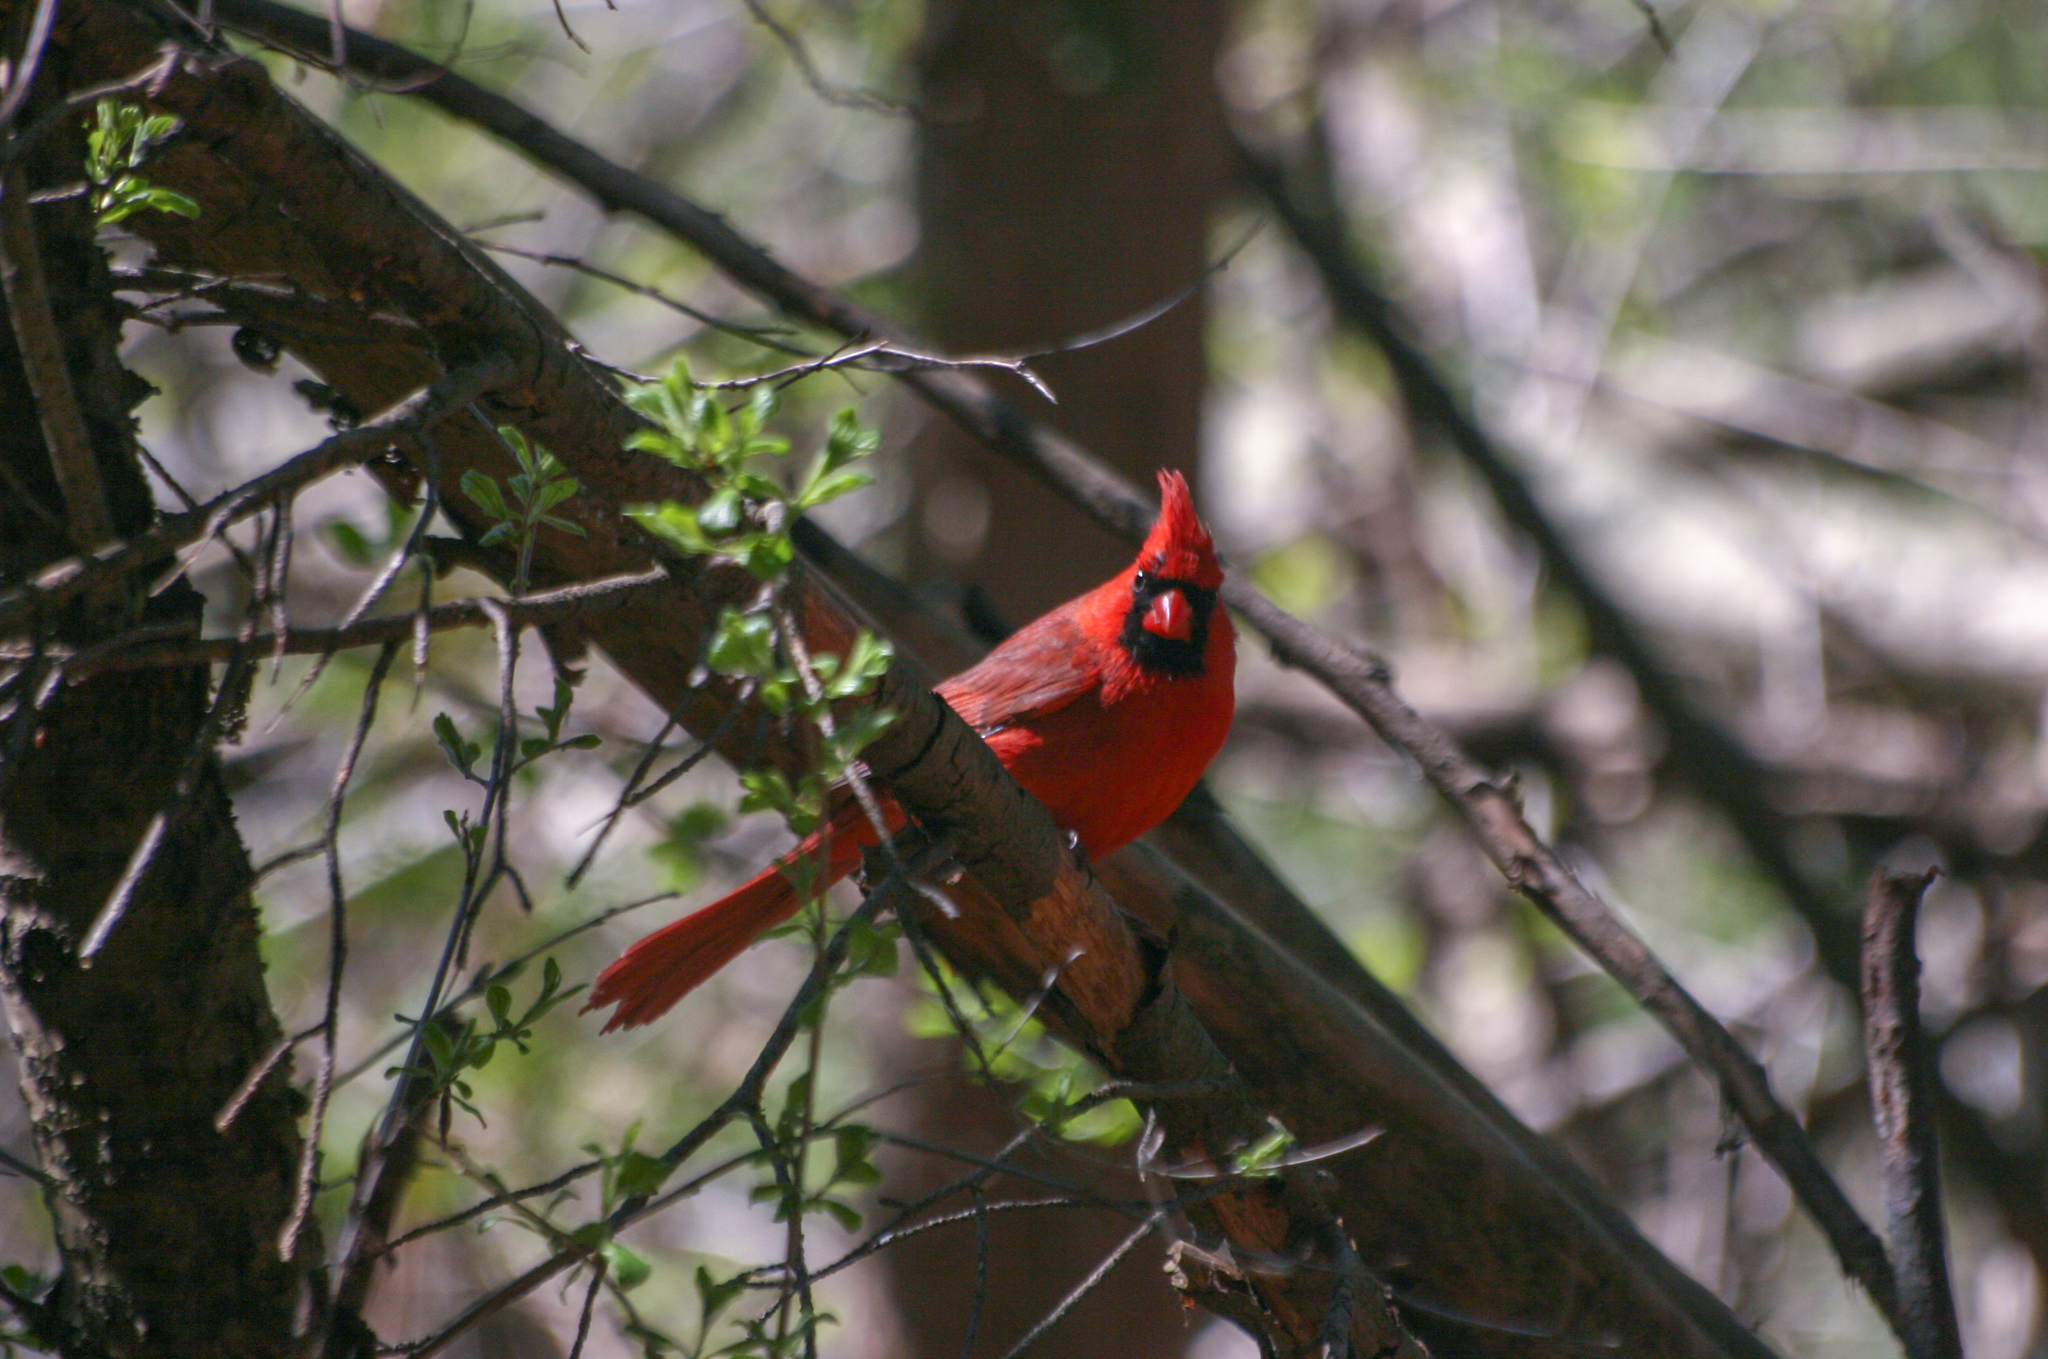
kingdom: Animalia
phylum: Chordata
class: Aves
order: Passeriformes
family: Cardinalidae
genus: Cardinalis
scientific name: Cardinalis cardinalis
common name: Northern cardinal
